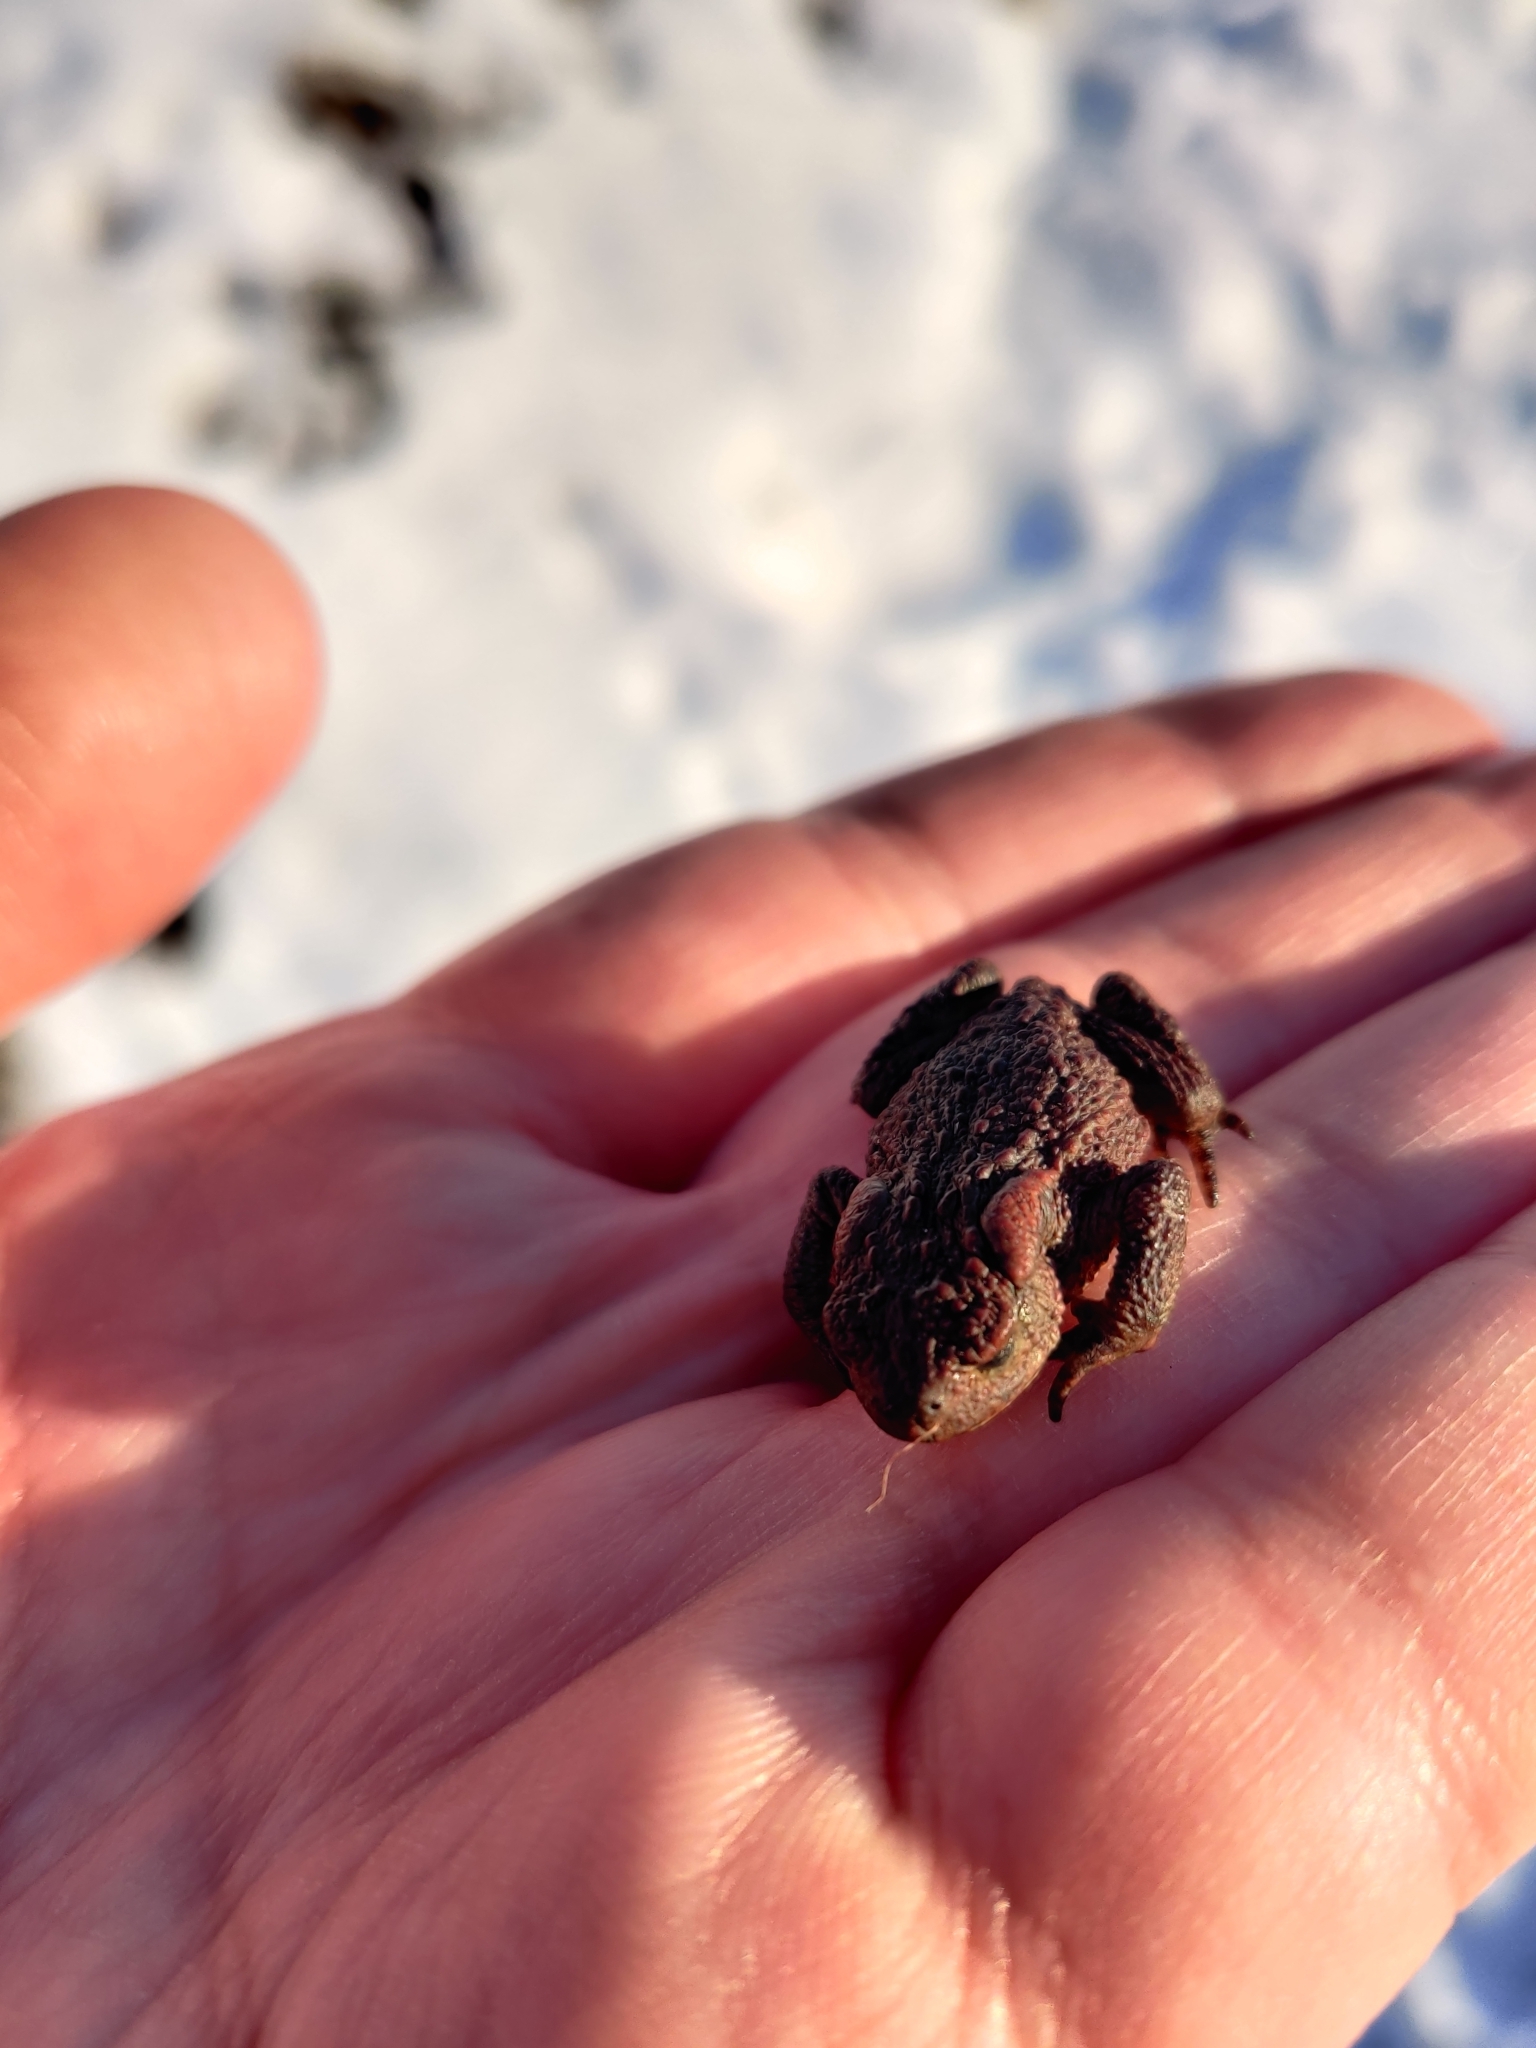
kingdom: Animalia
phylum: Chordata
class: Amphibia
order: Anura
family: Bufonidae
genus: Bufo
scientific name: Bufo bufo
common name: Common toad
